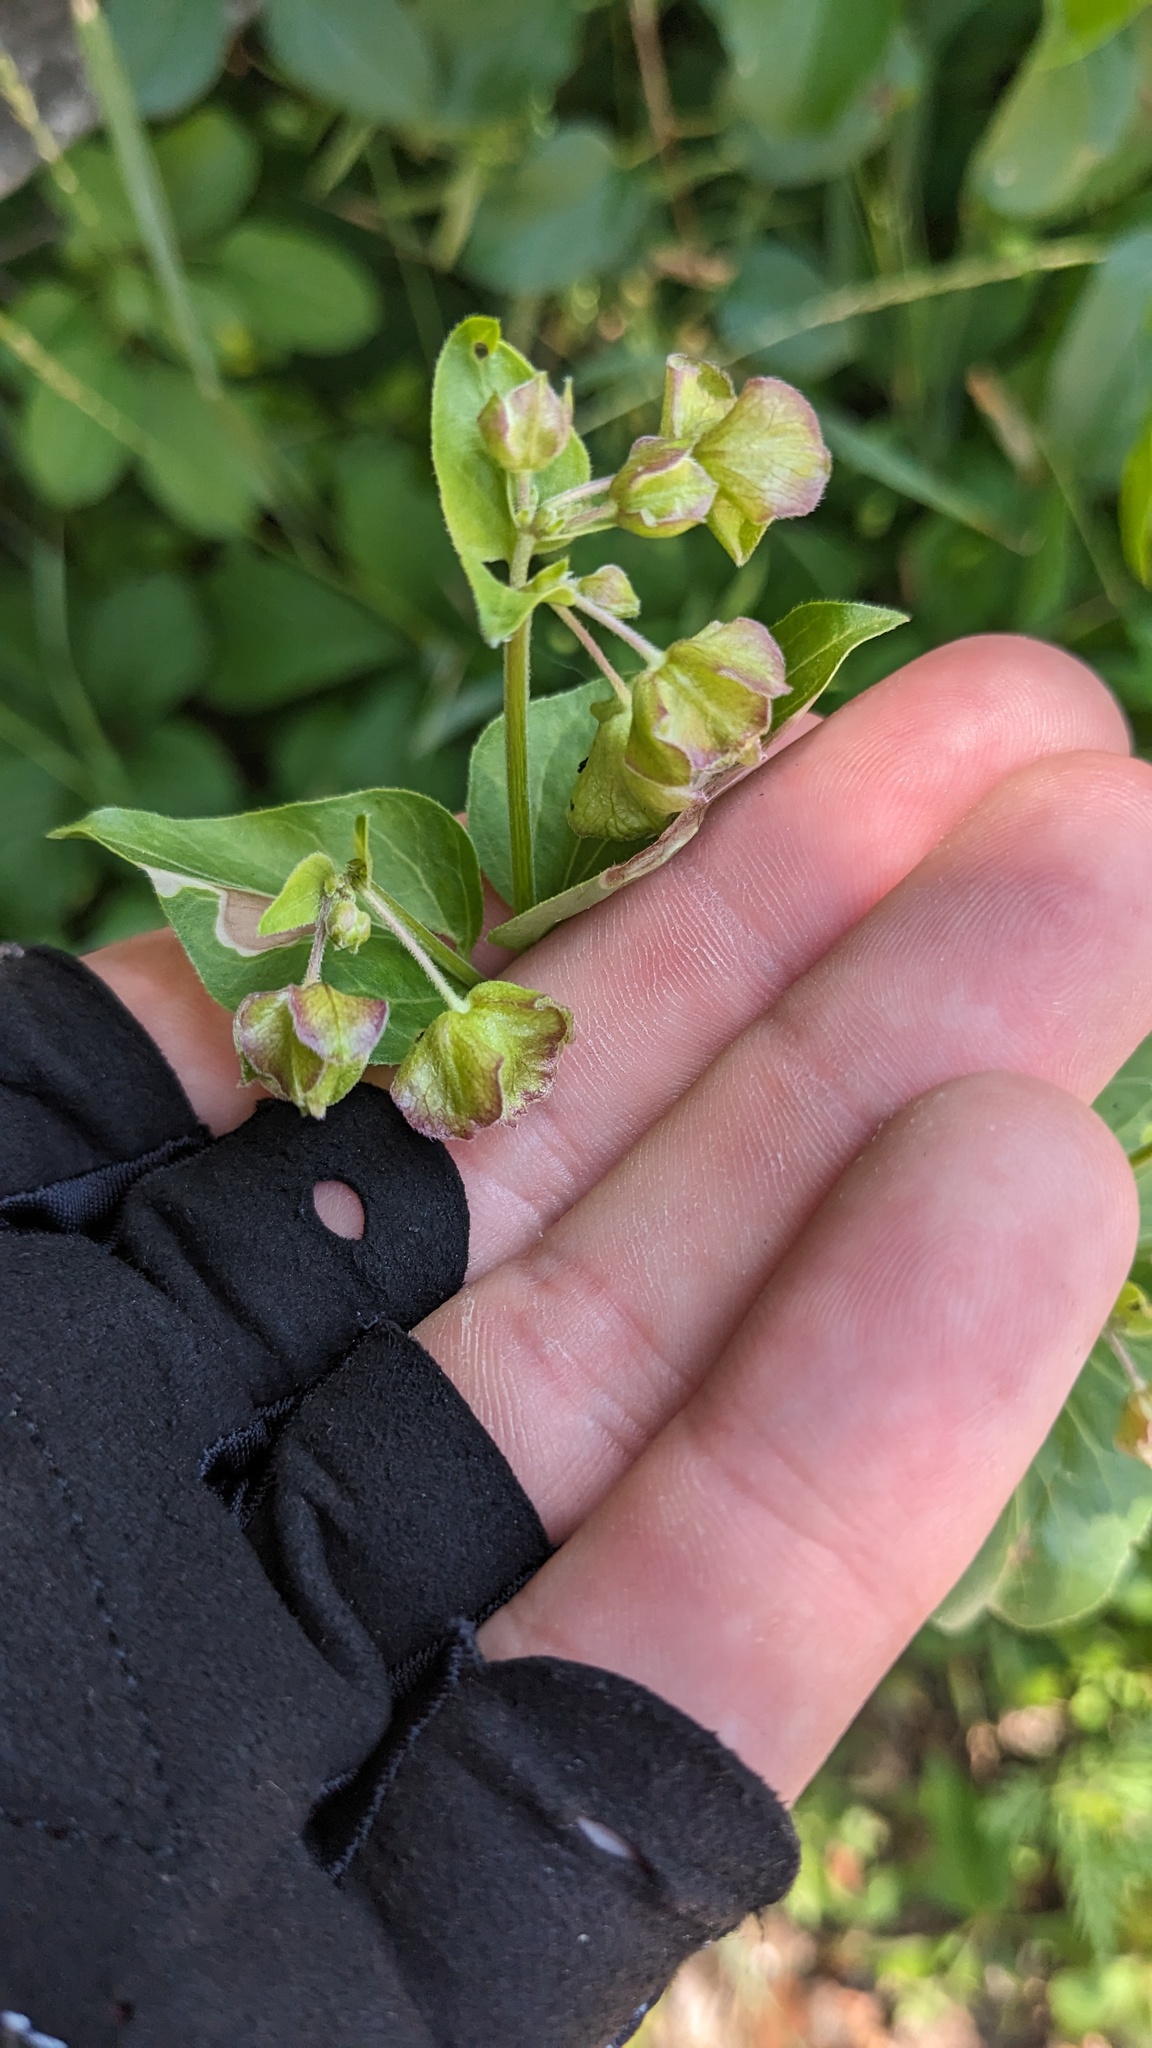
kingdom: Plantae
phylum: Tracheophyta
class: Magnoliopsida
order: Caryophyllales
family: Nyctaginaceae
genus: Mirabilis
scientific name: Mirabilis nyctaginea
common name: Umbrella wort
